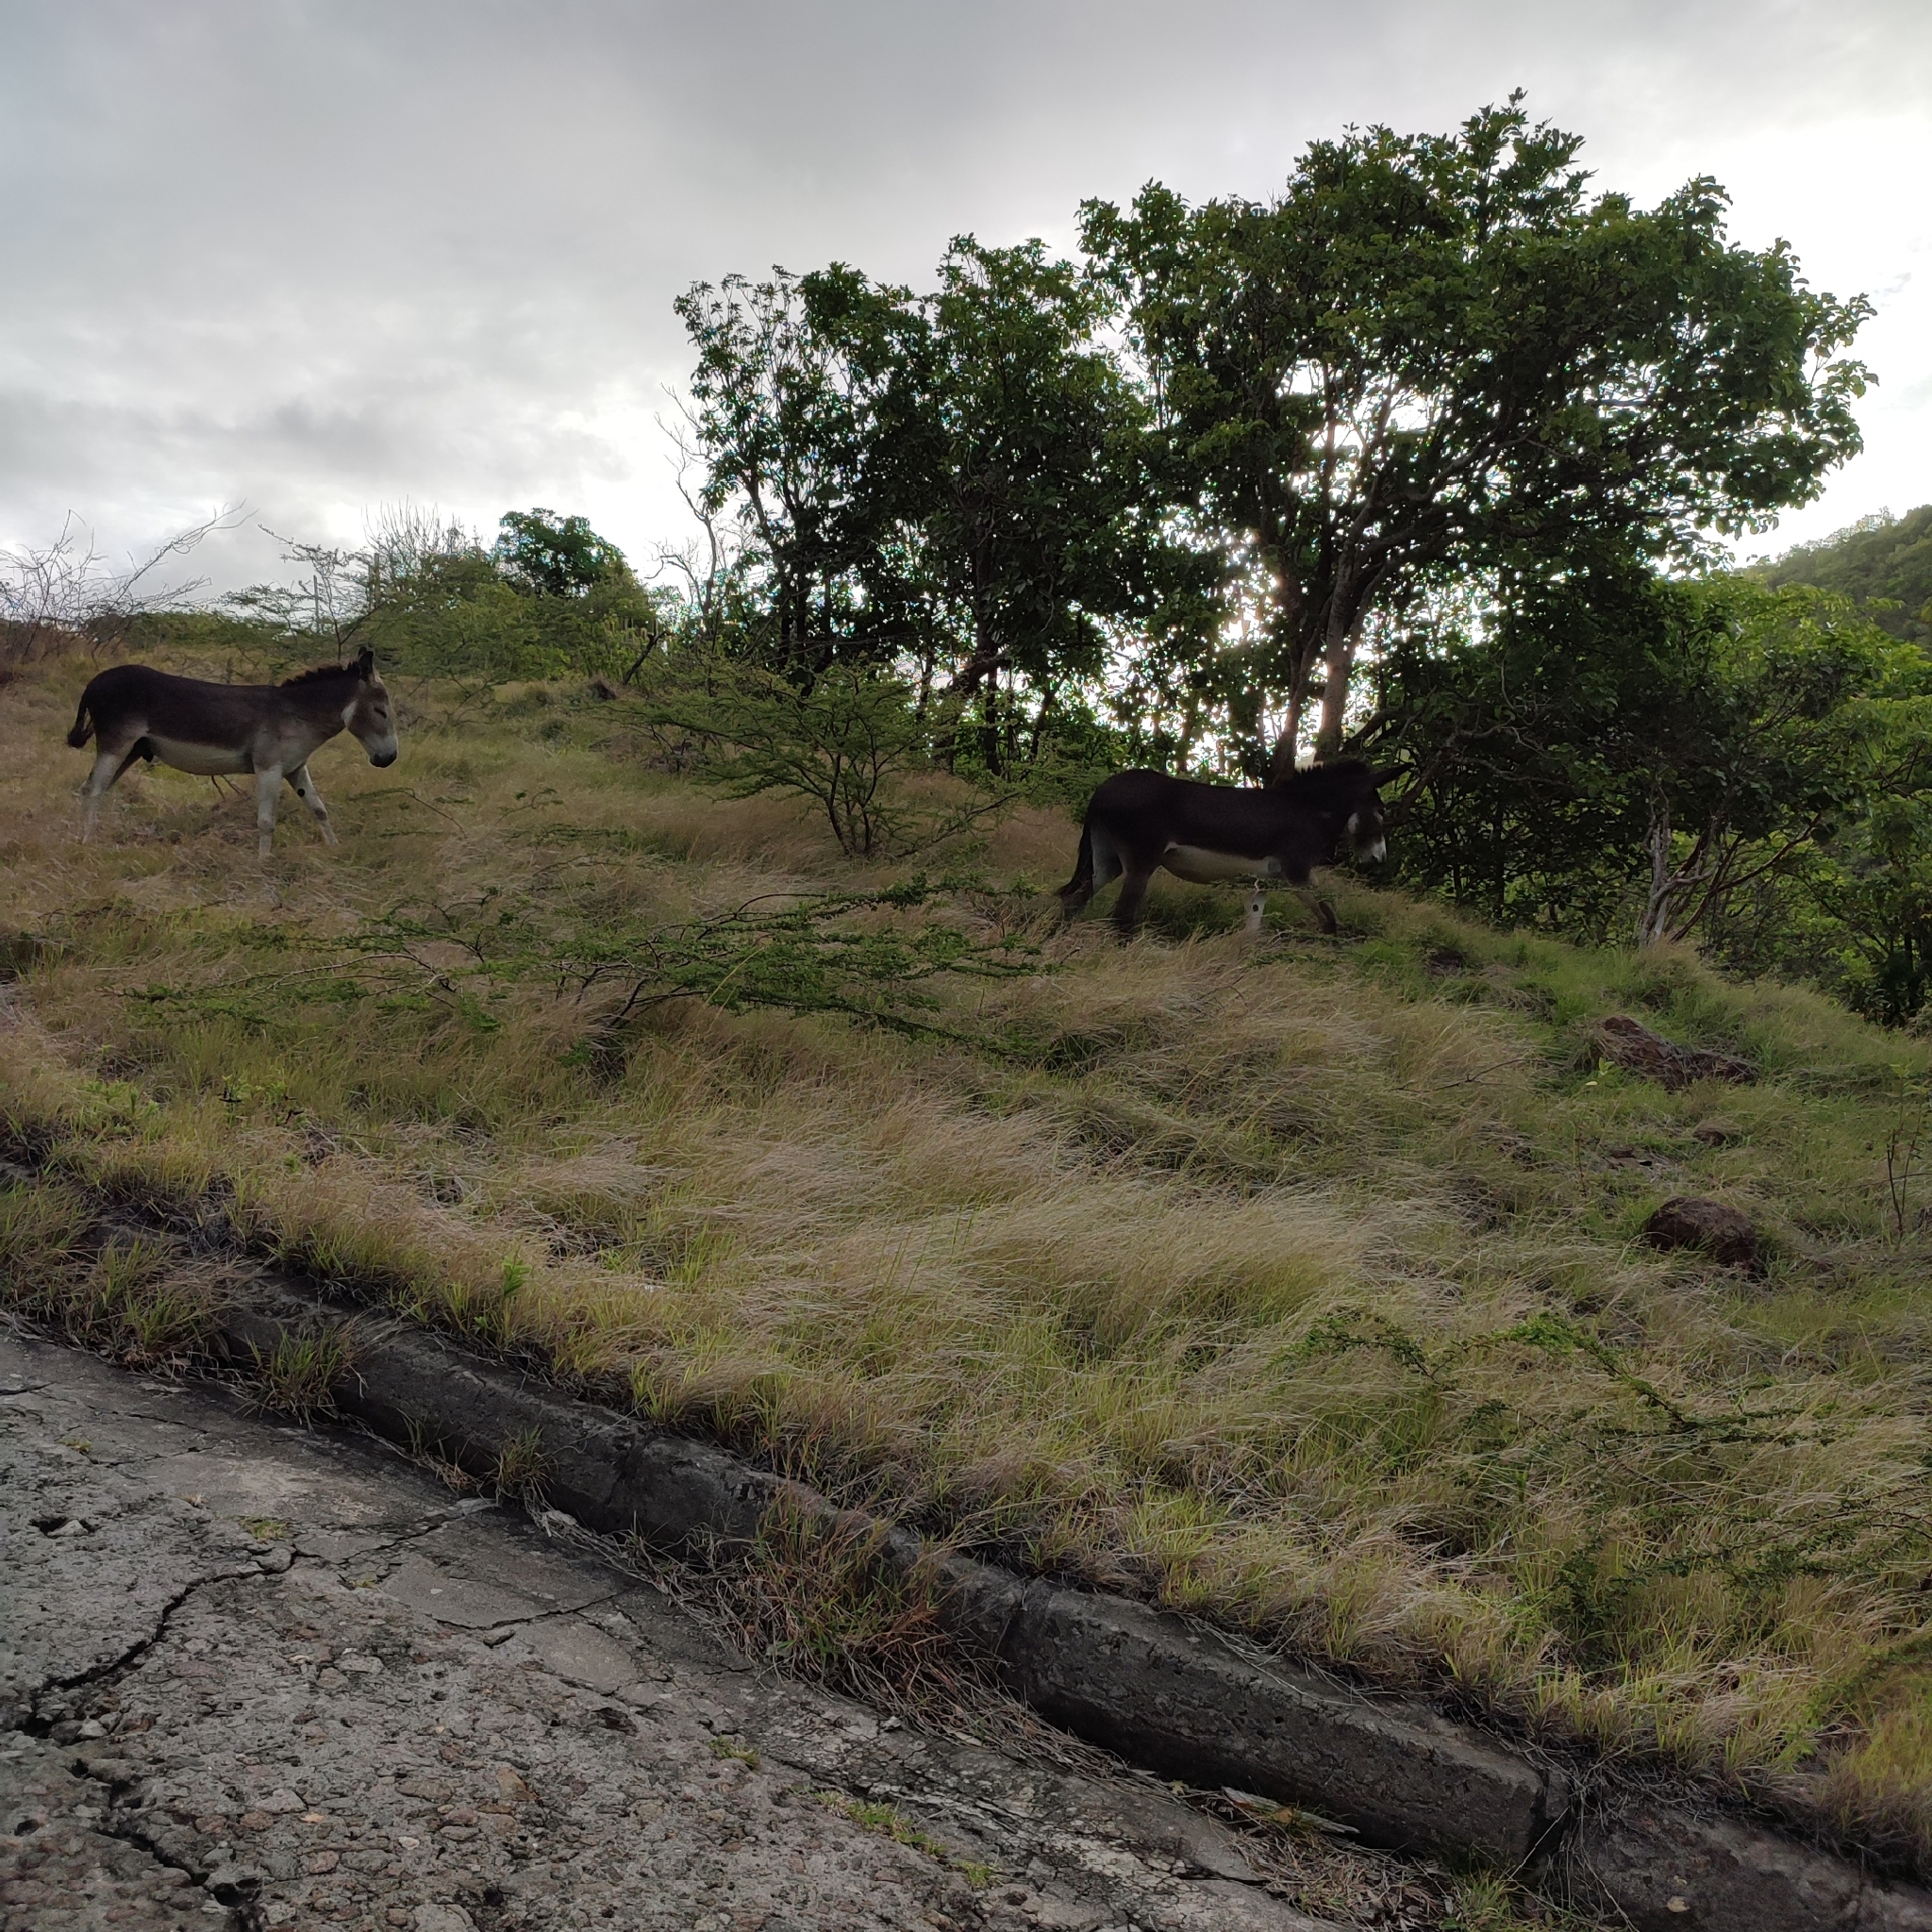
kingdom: Animalia
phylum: Chordata
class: Mammalia
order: Perissodactyla
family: Equidae
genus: Equus
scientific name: Equus asinus
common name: Ass
